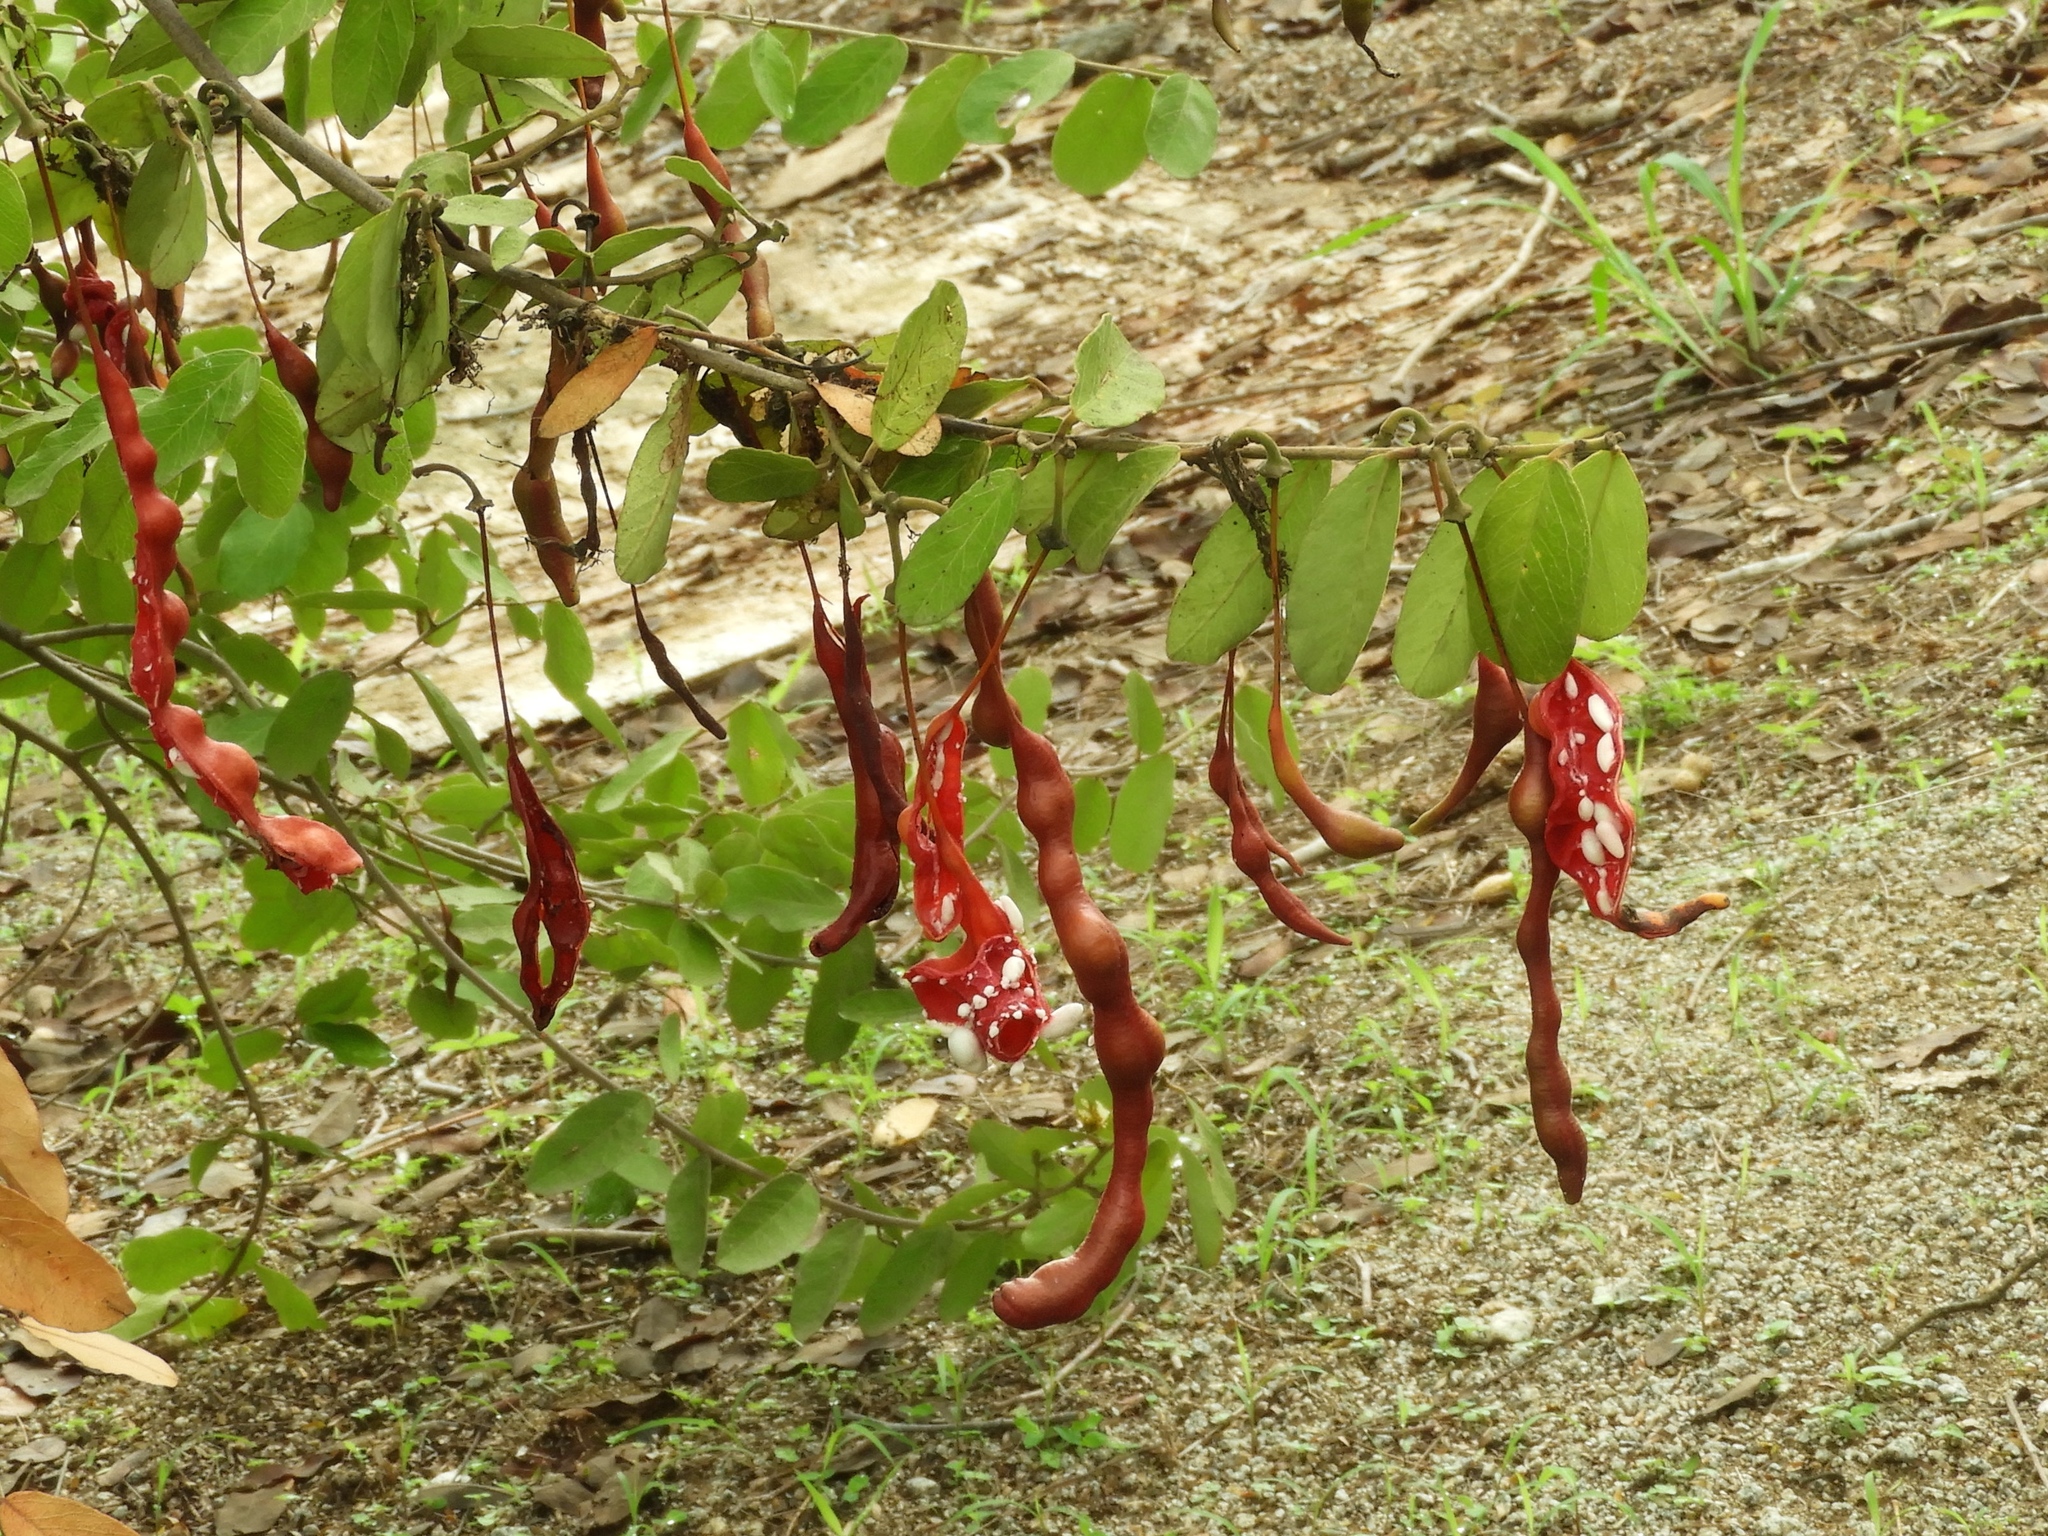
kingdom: Plantae
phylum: Tracheophyta
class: Magnoliopsida
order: Brassicales
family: Capparaceae
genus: Cynophalla
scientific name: Cynophalla flexuosa
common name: Capertree
